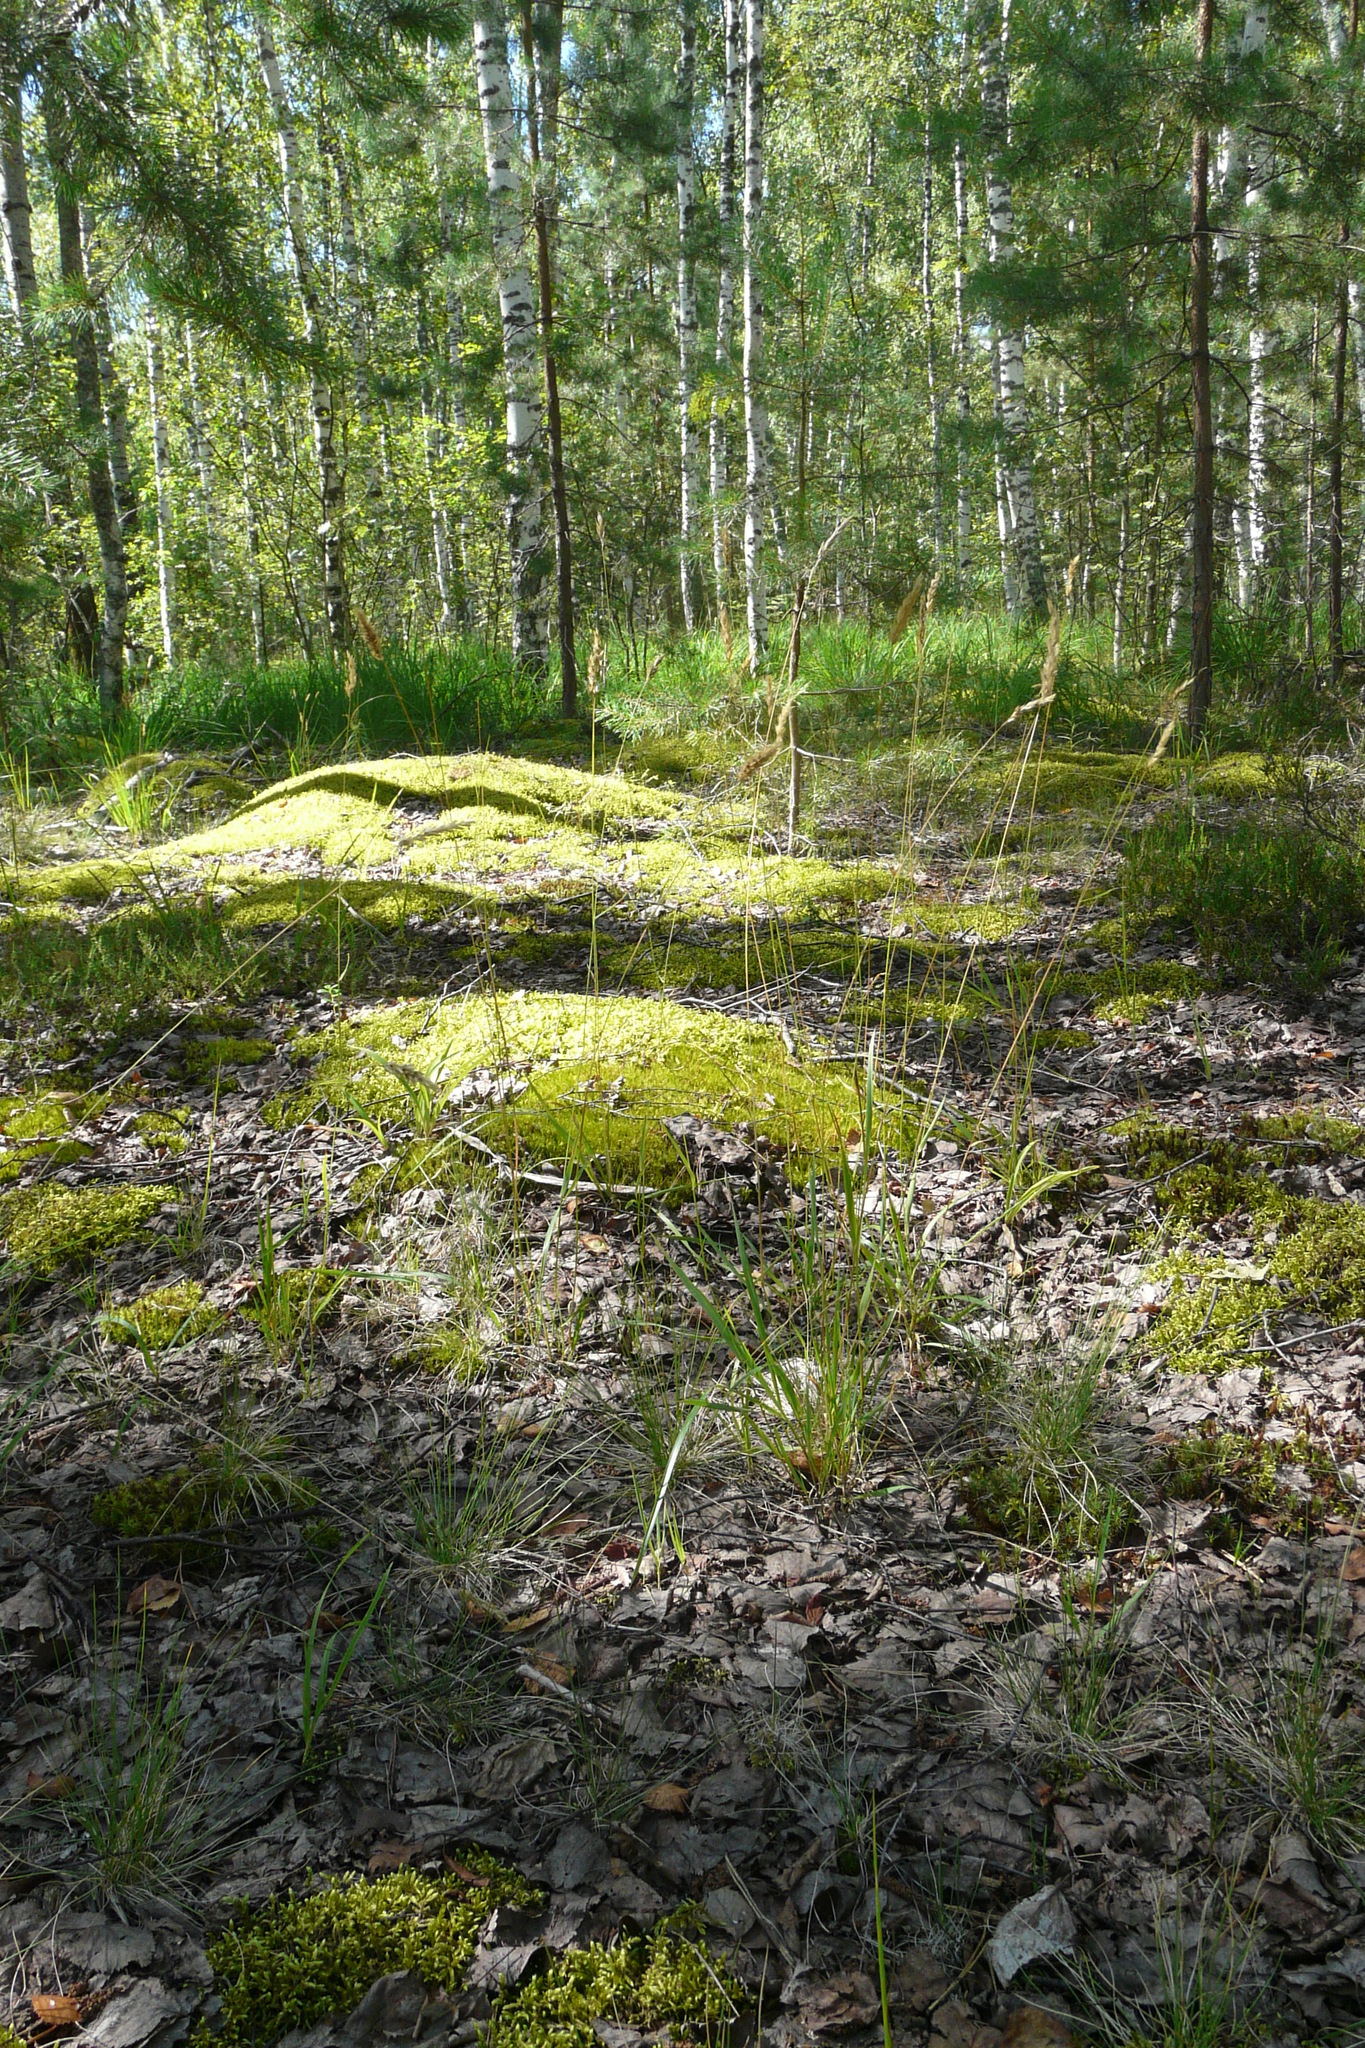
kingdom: Plantae
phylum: Tracheophyta
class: Liliopsida
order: Poales
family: Poaceae
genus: Anthoxanthum
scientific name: Anthoxanthum odoratum
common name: Sweet vernalgrass
